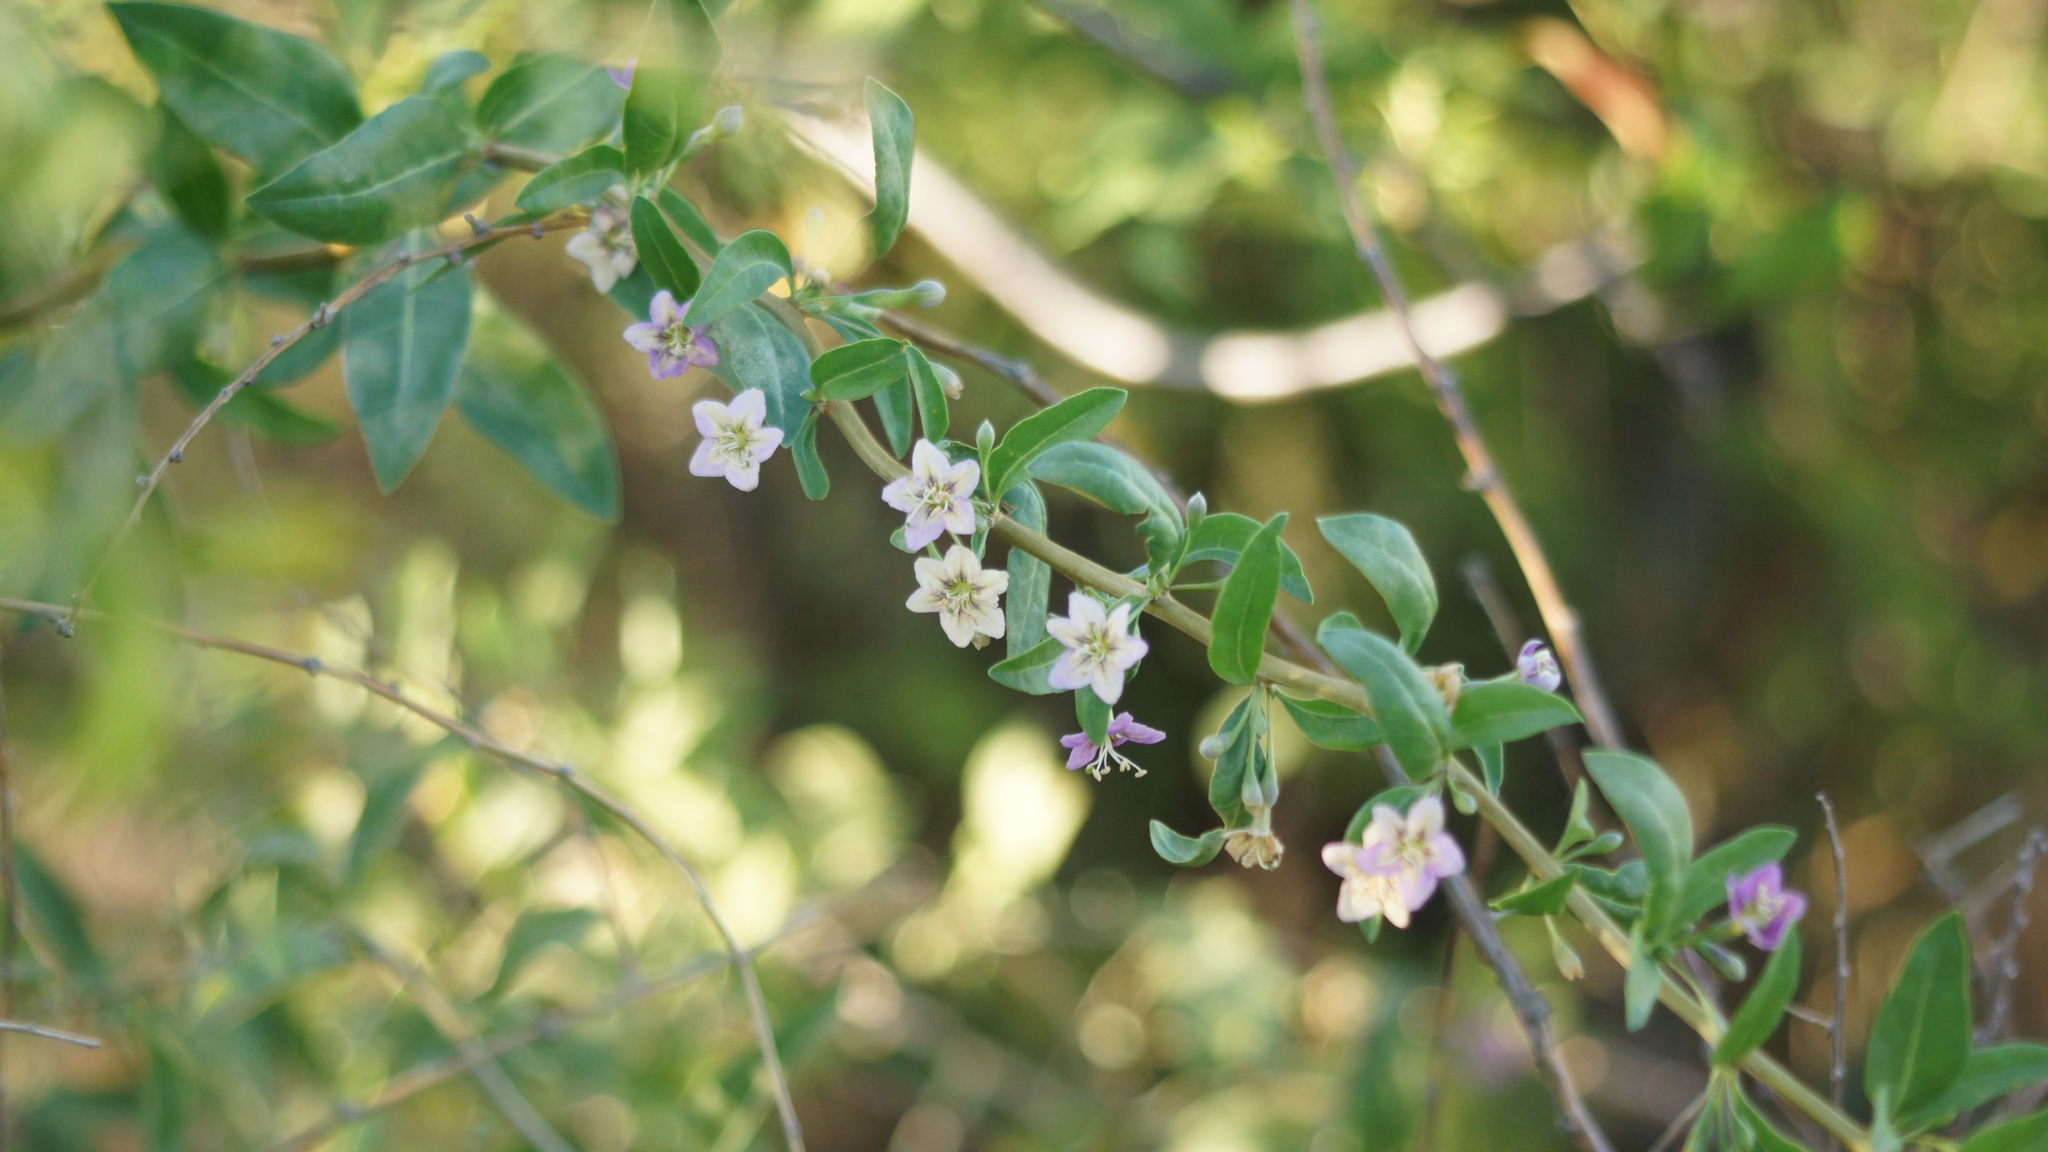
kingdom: Plantae
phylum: Tracheophyta
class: Magnoliopsida
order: Solanales
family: Solanaceae
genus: Lycium
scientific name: Lycium barbarum
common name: Duke of argyll's teaplant
